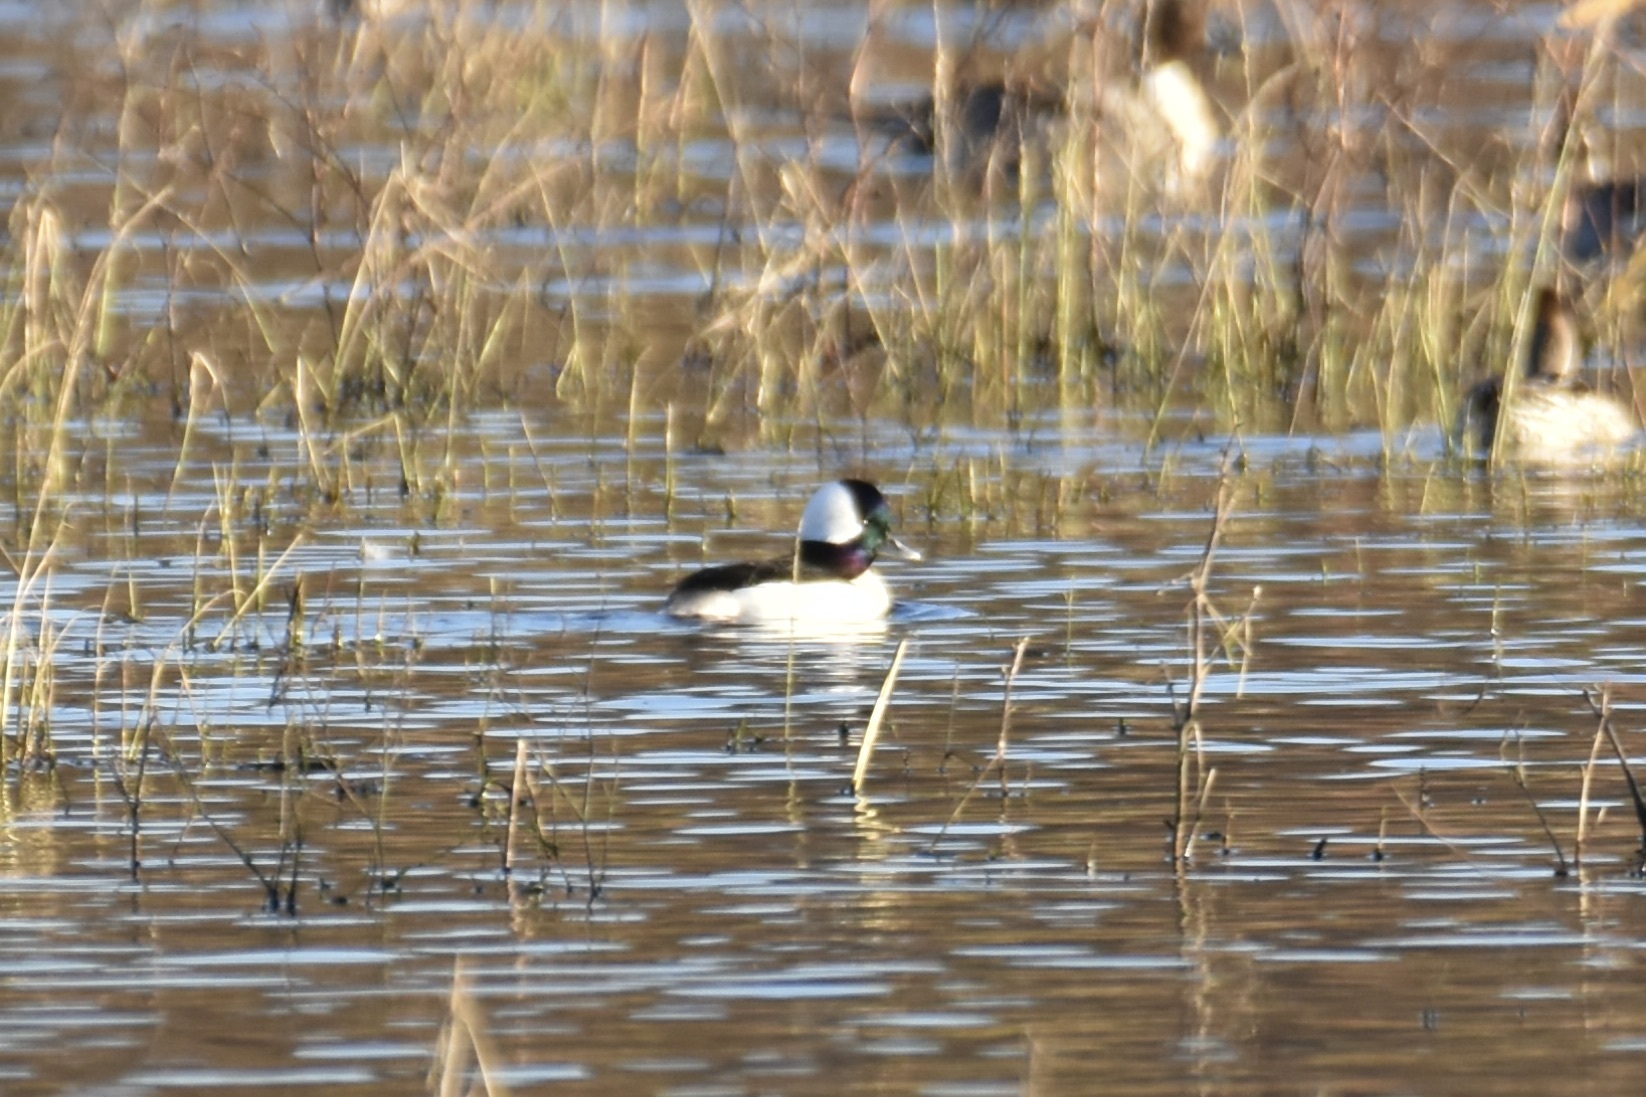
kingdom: Animalia
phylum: Chordata
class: Aves
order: Anseriformes
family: Anatidae
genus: Bucephala
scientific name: Bucephala albeola
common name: Bufflehead
